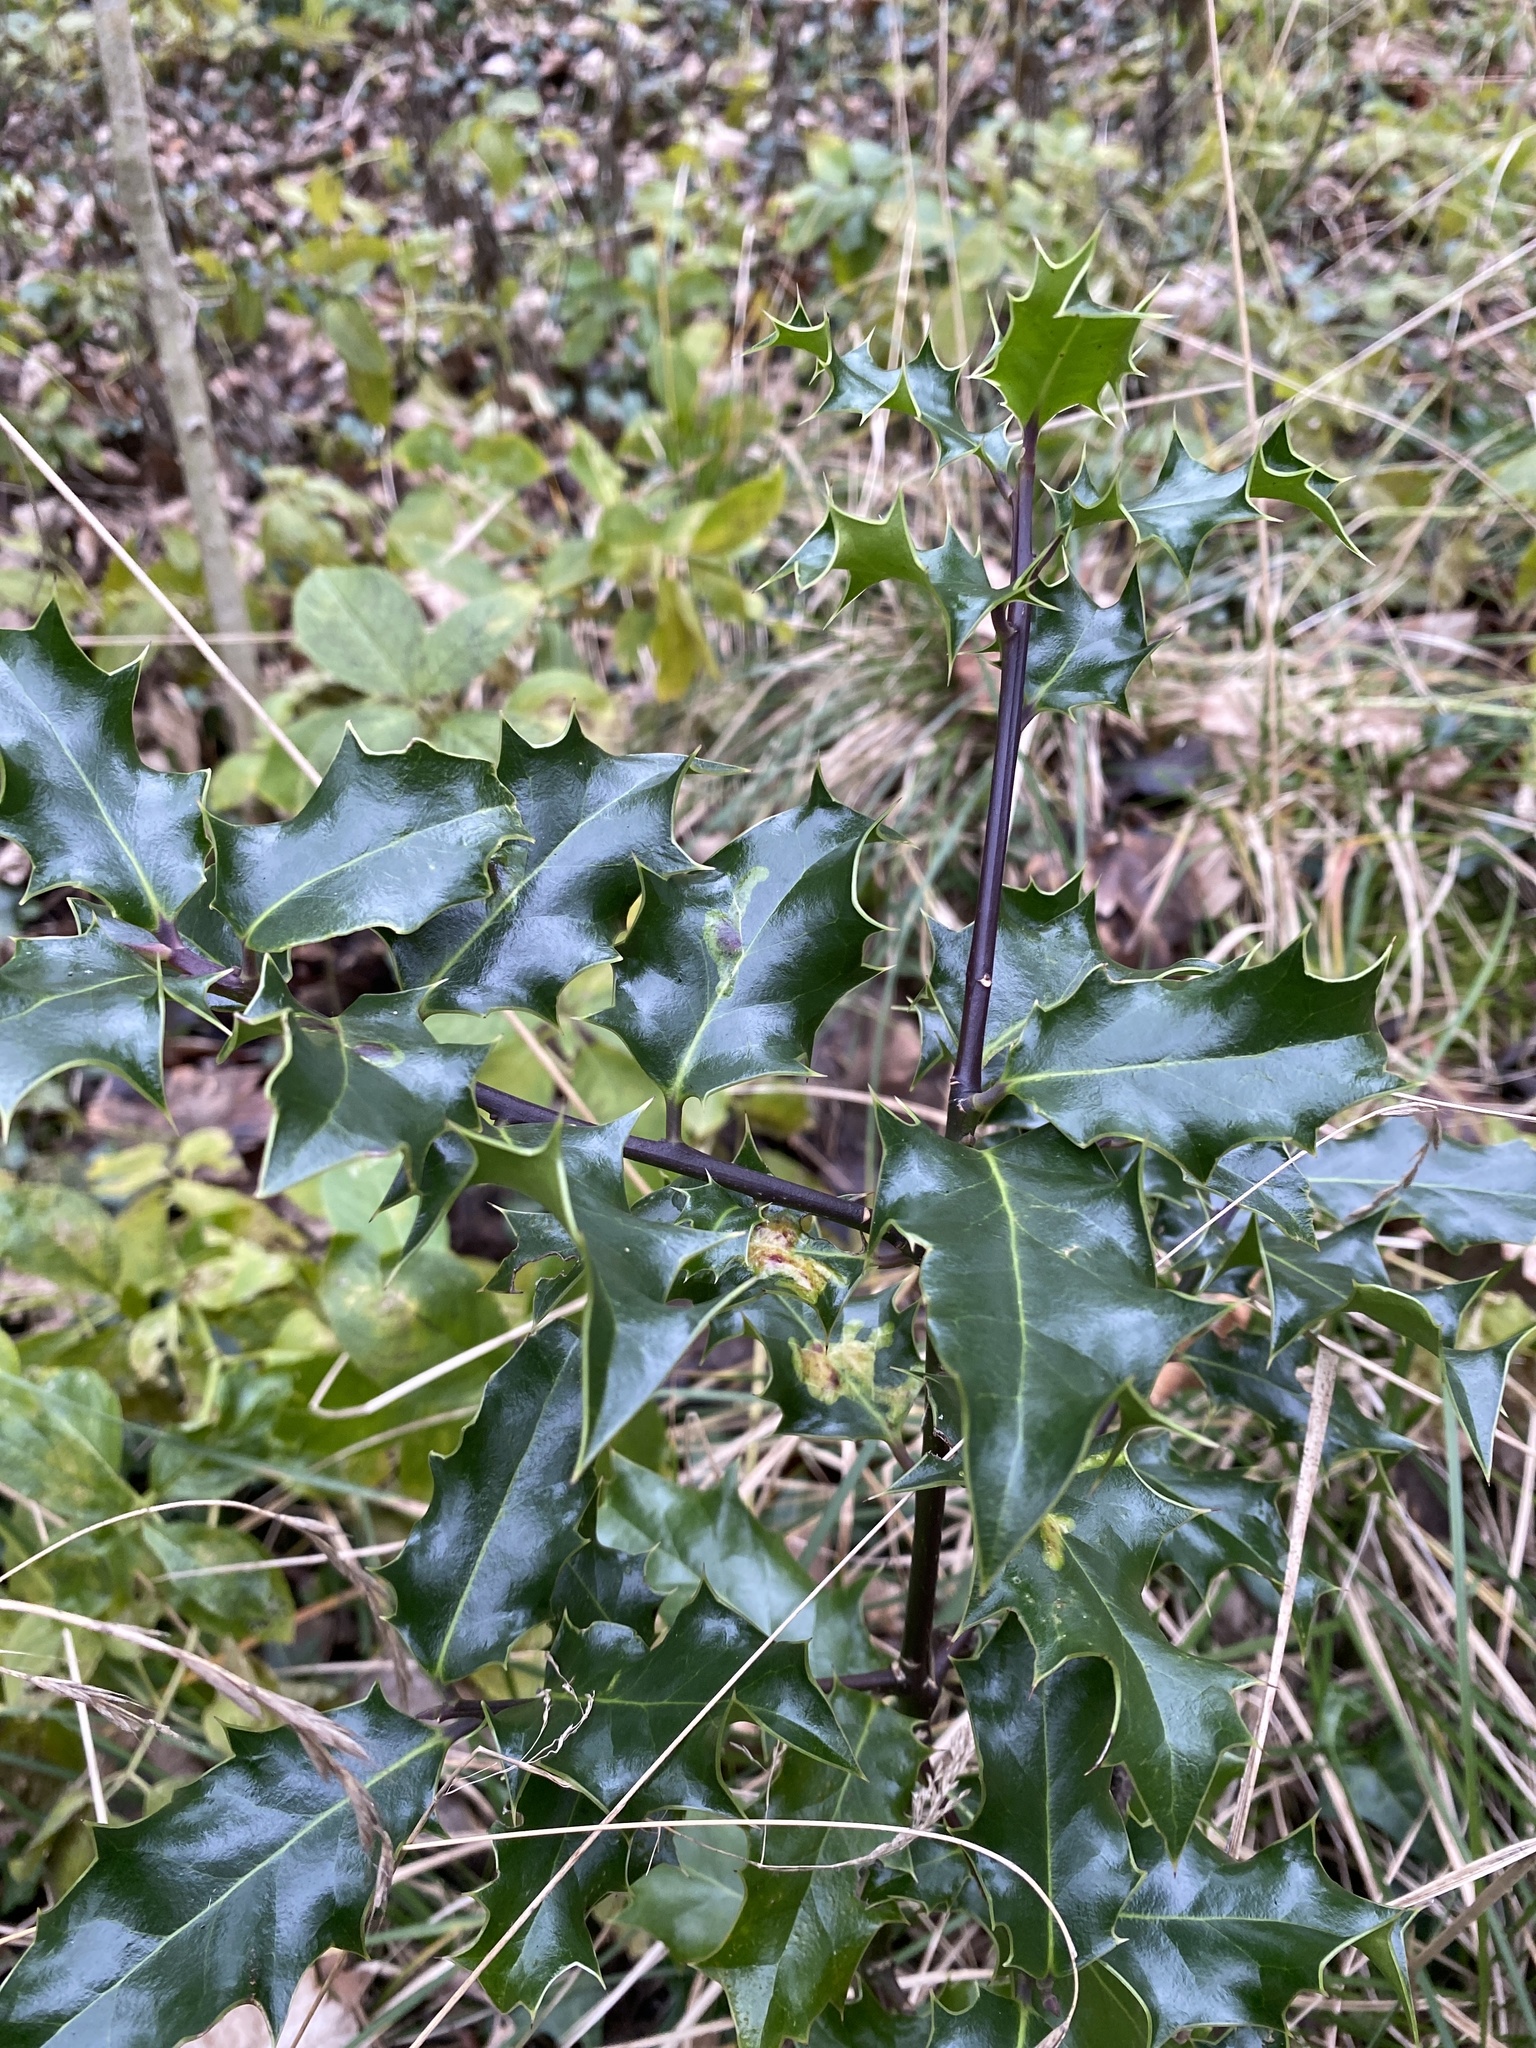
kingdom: Plantae
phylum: Tracheophyta
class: Magnoliopsida
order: Aquifoliales
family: Aquifoliaceae
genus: Ilex
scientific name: Ilex aquifolium
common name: English holly
